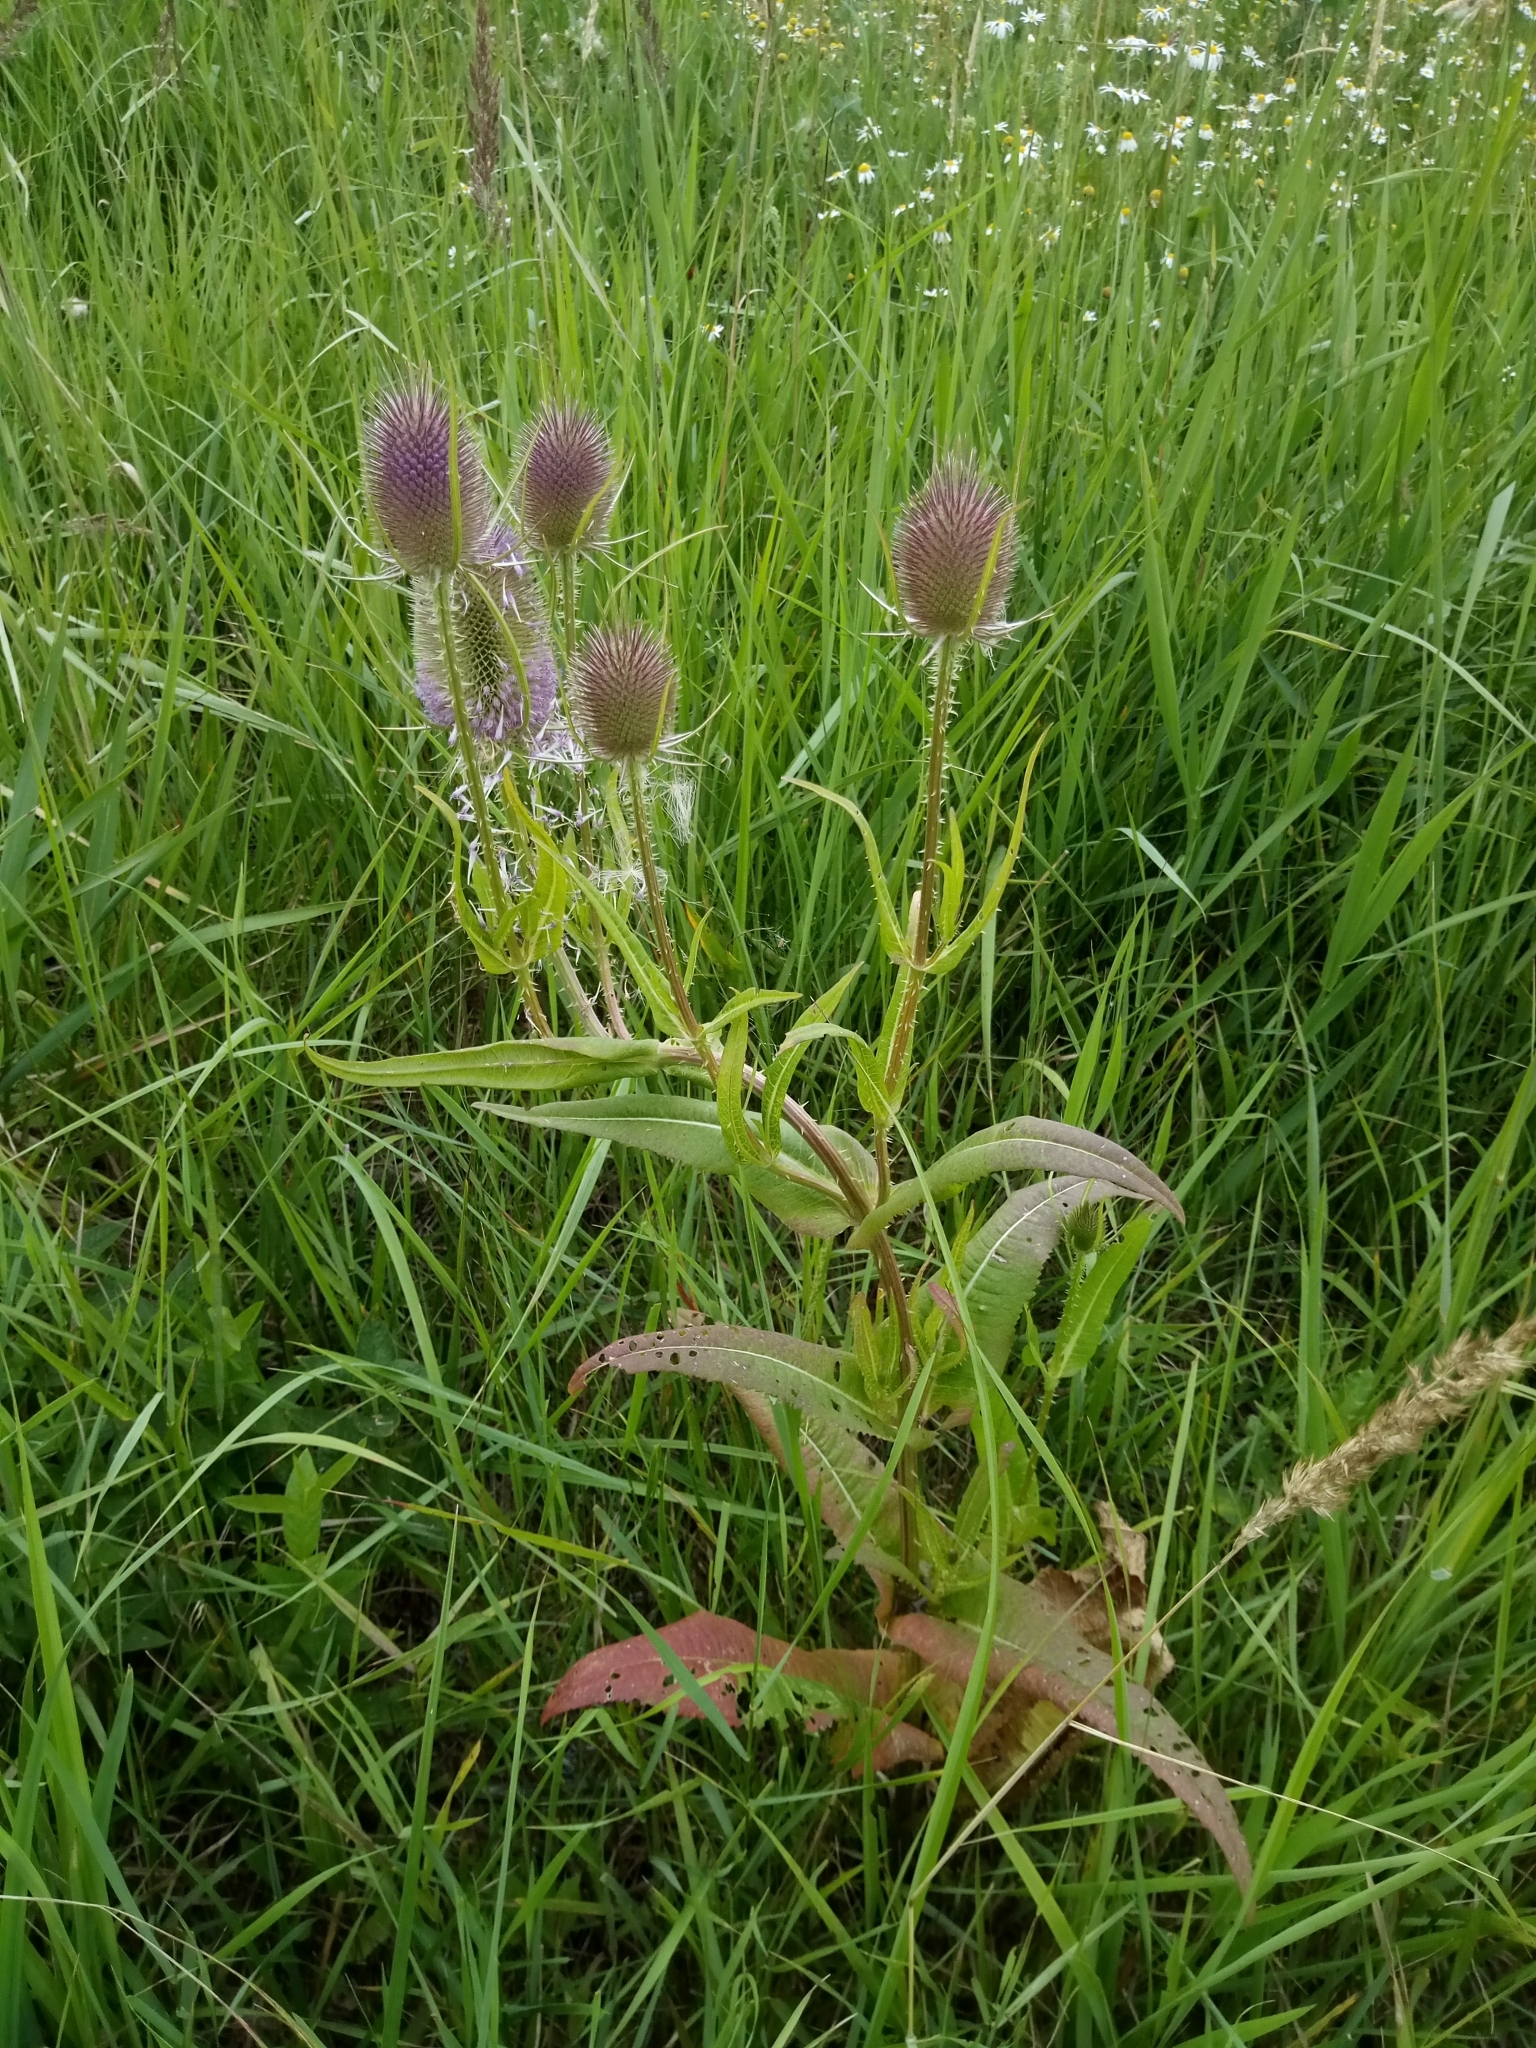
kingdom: Plantae
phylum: Tracheophyta
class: Magnoliopsida
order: Dipsacales
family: Caprifoliaceae
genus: Dipsacus
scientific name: Dipsacus fullonum
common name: Teasel
